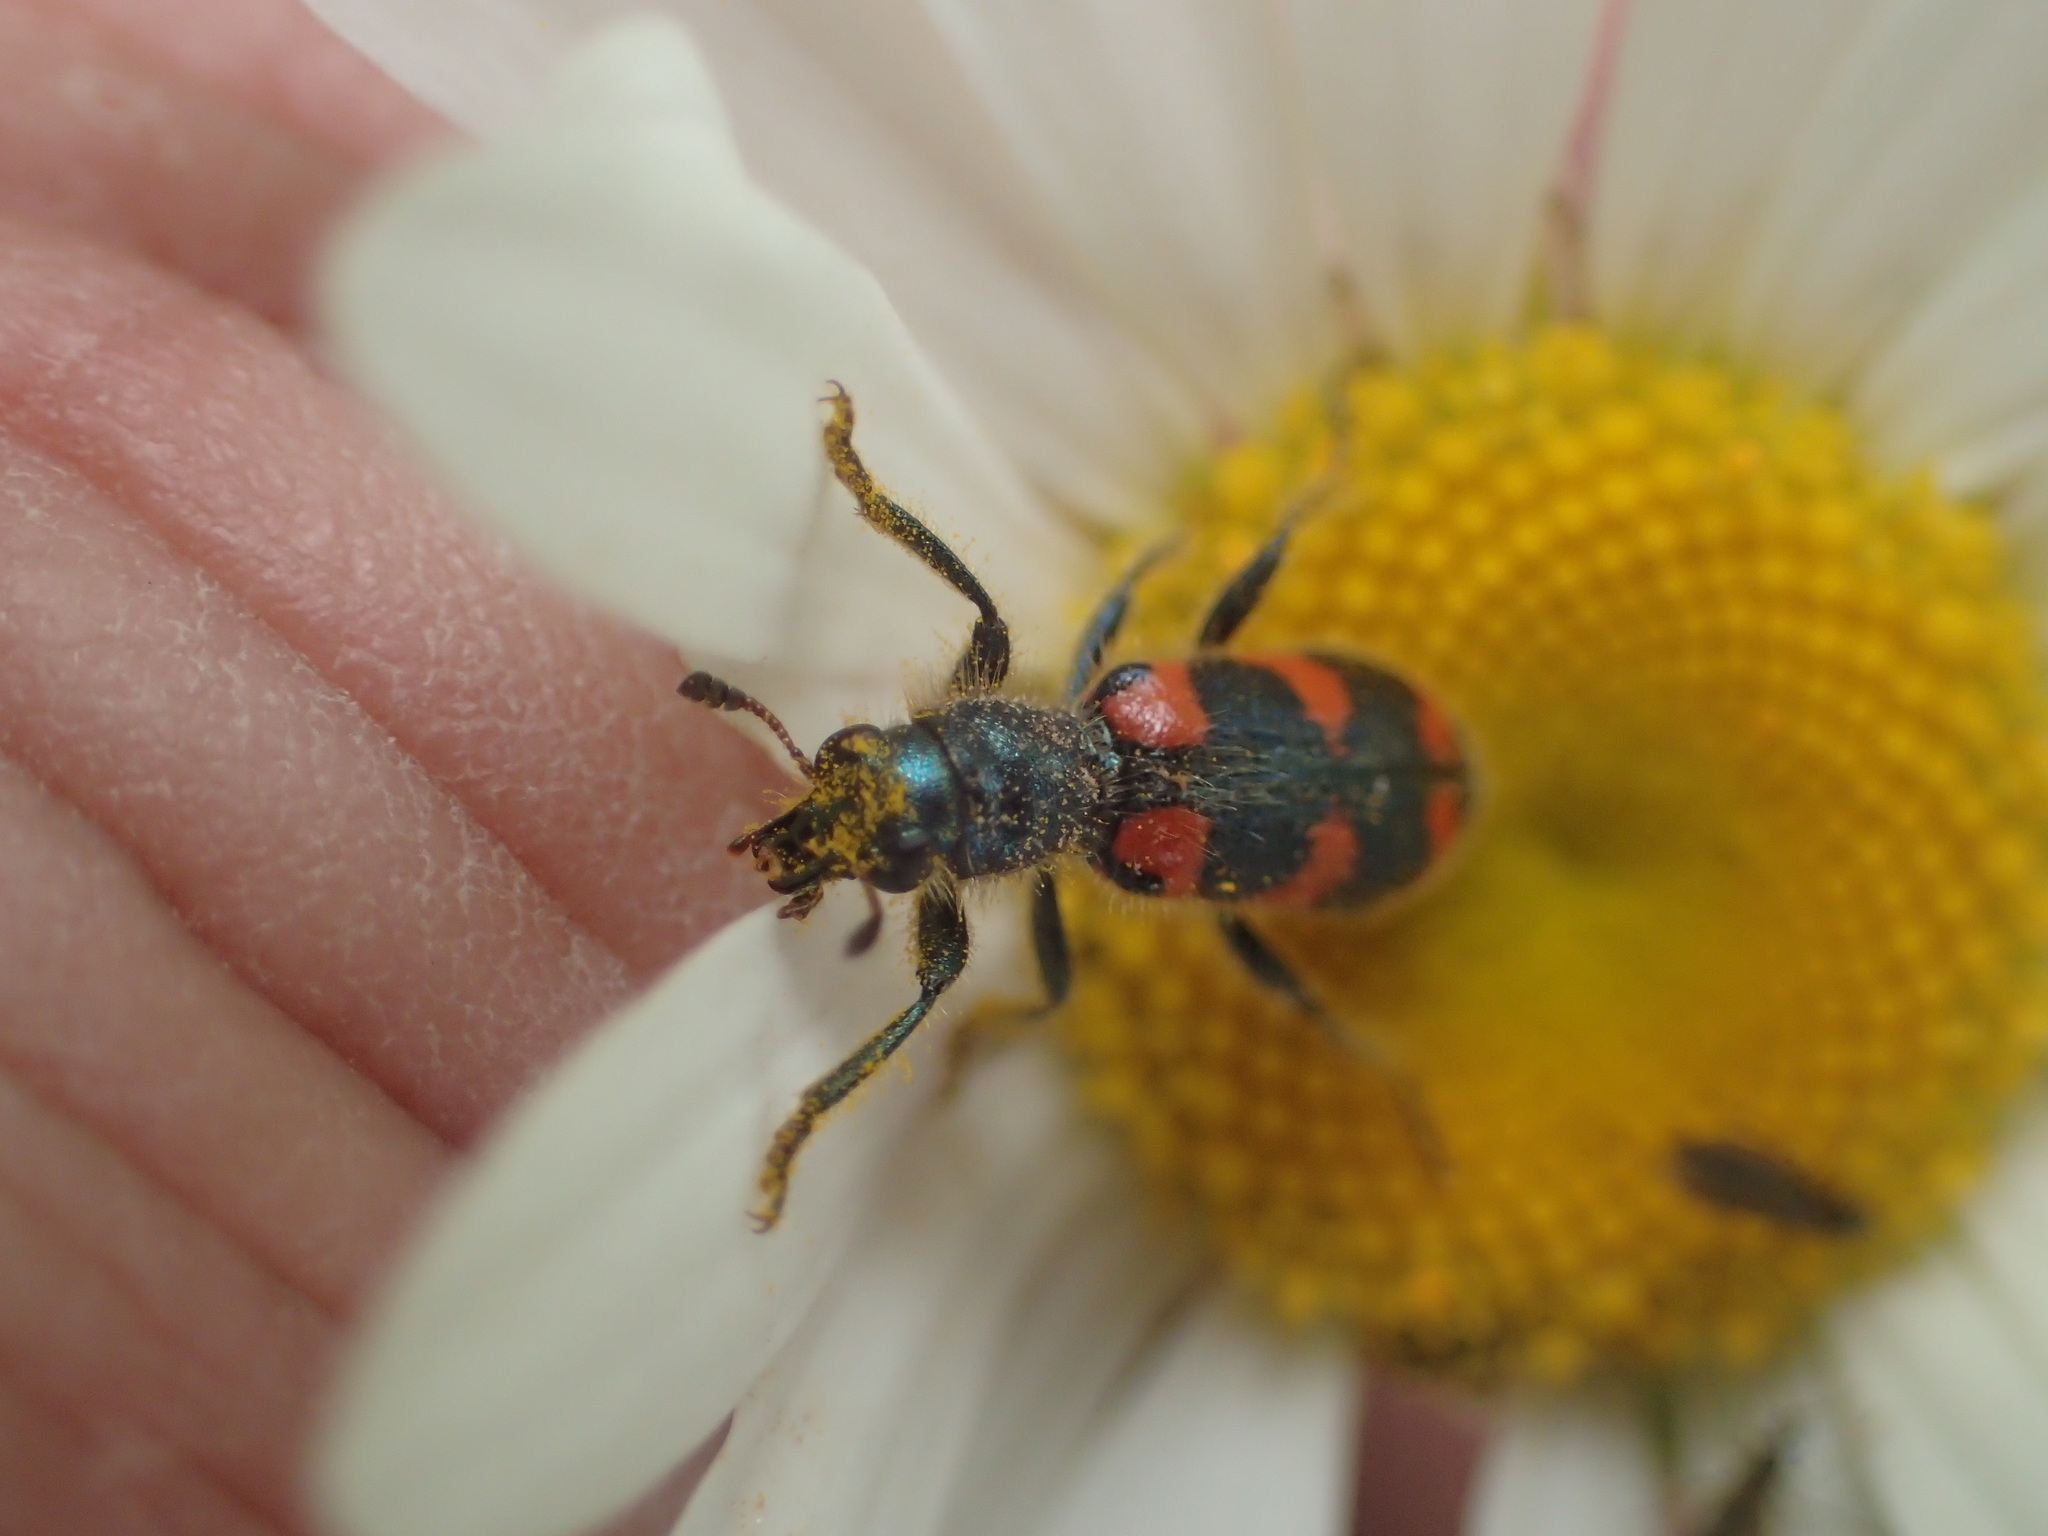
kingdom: Animalia
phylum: Arthropoda
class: Insecta
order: Coleoptera
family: Cleridae
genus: Trichodes
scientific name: Trichodes nutalli
